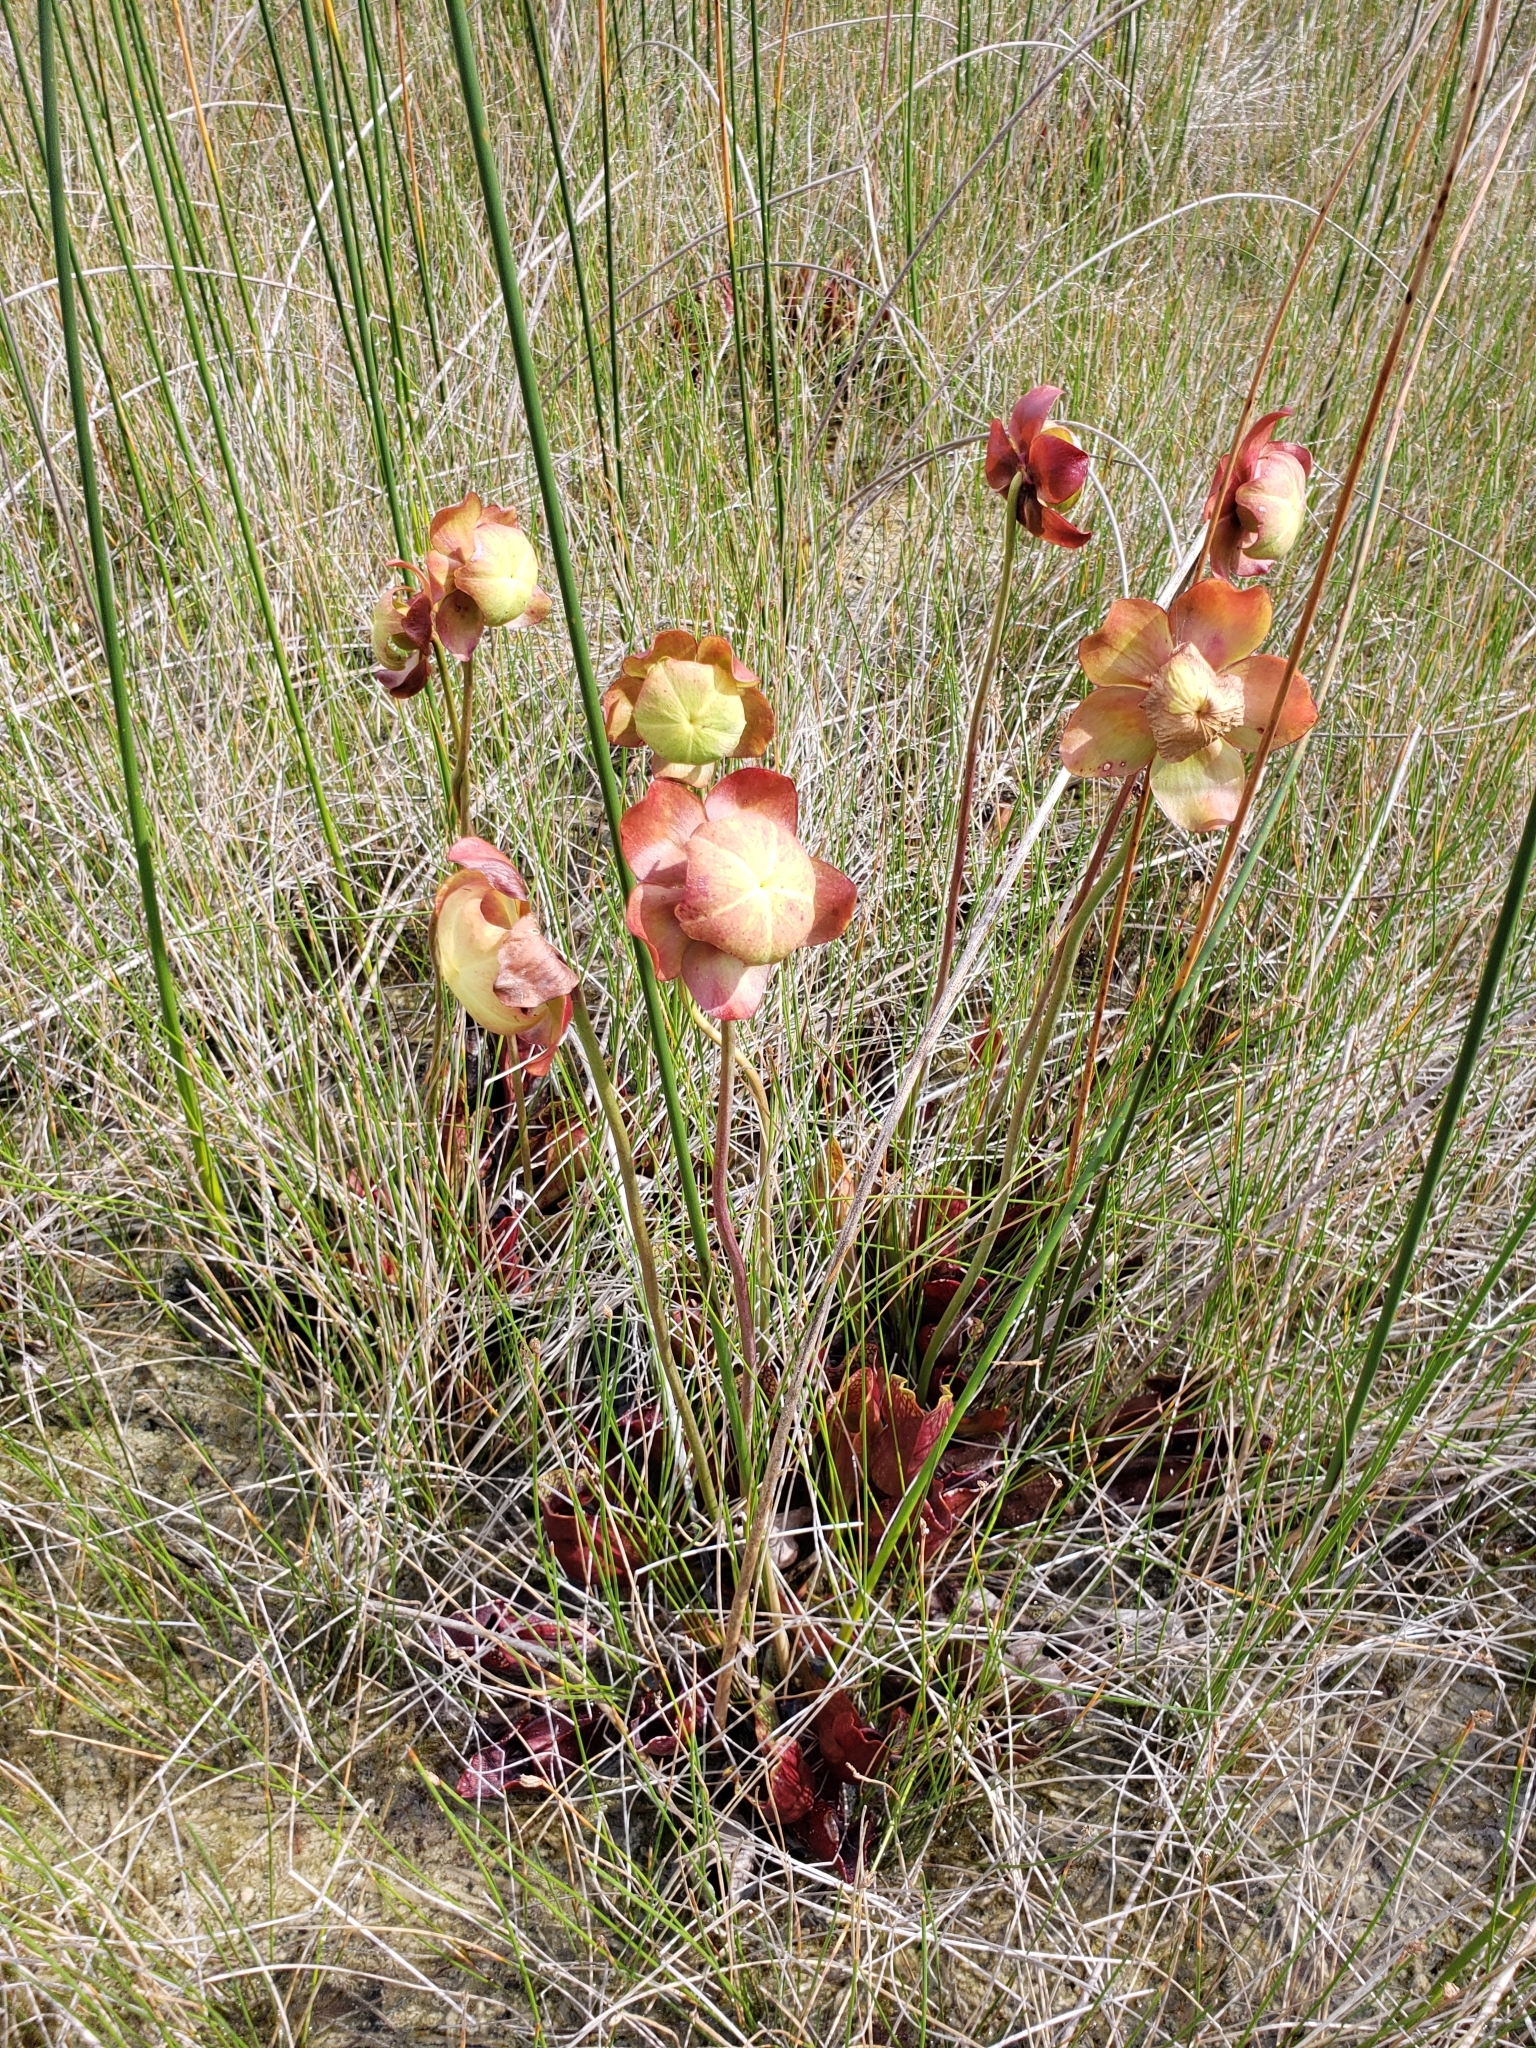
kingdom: Plantae
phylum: Tracheophyta
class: Magnoliopsida
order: Ericales
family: Sarraceniaceae
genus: Sarracenia
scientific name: Sarracenia purpurea
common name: Pitcherplant
